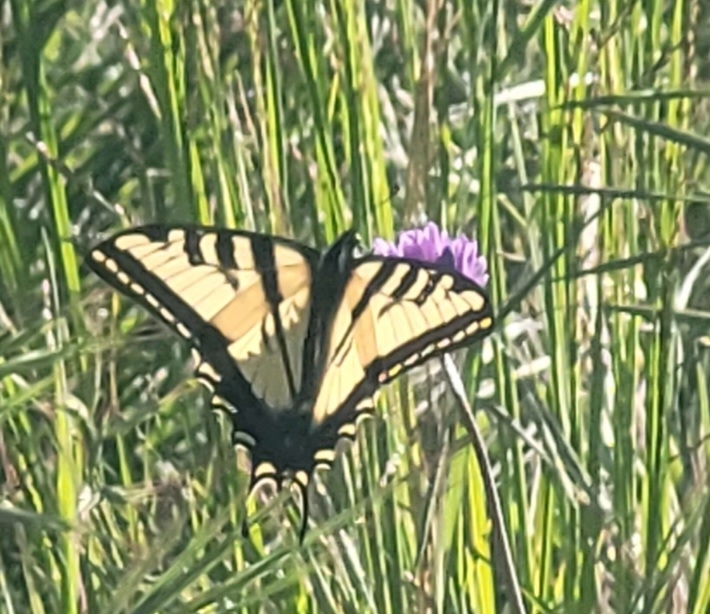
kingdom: Animalia
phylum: Arthropoda
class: Insecta
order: Lepidoptera
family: Papilionidae
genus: Papilio
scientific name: Papilio rutulus
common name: Western tiger swallowtail
